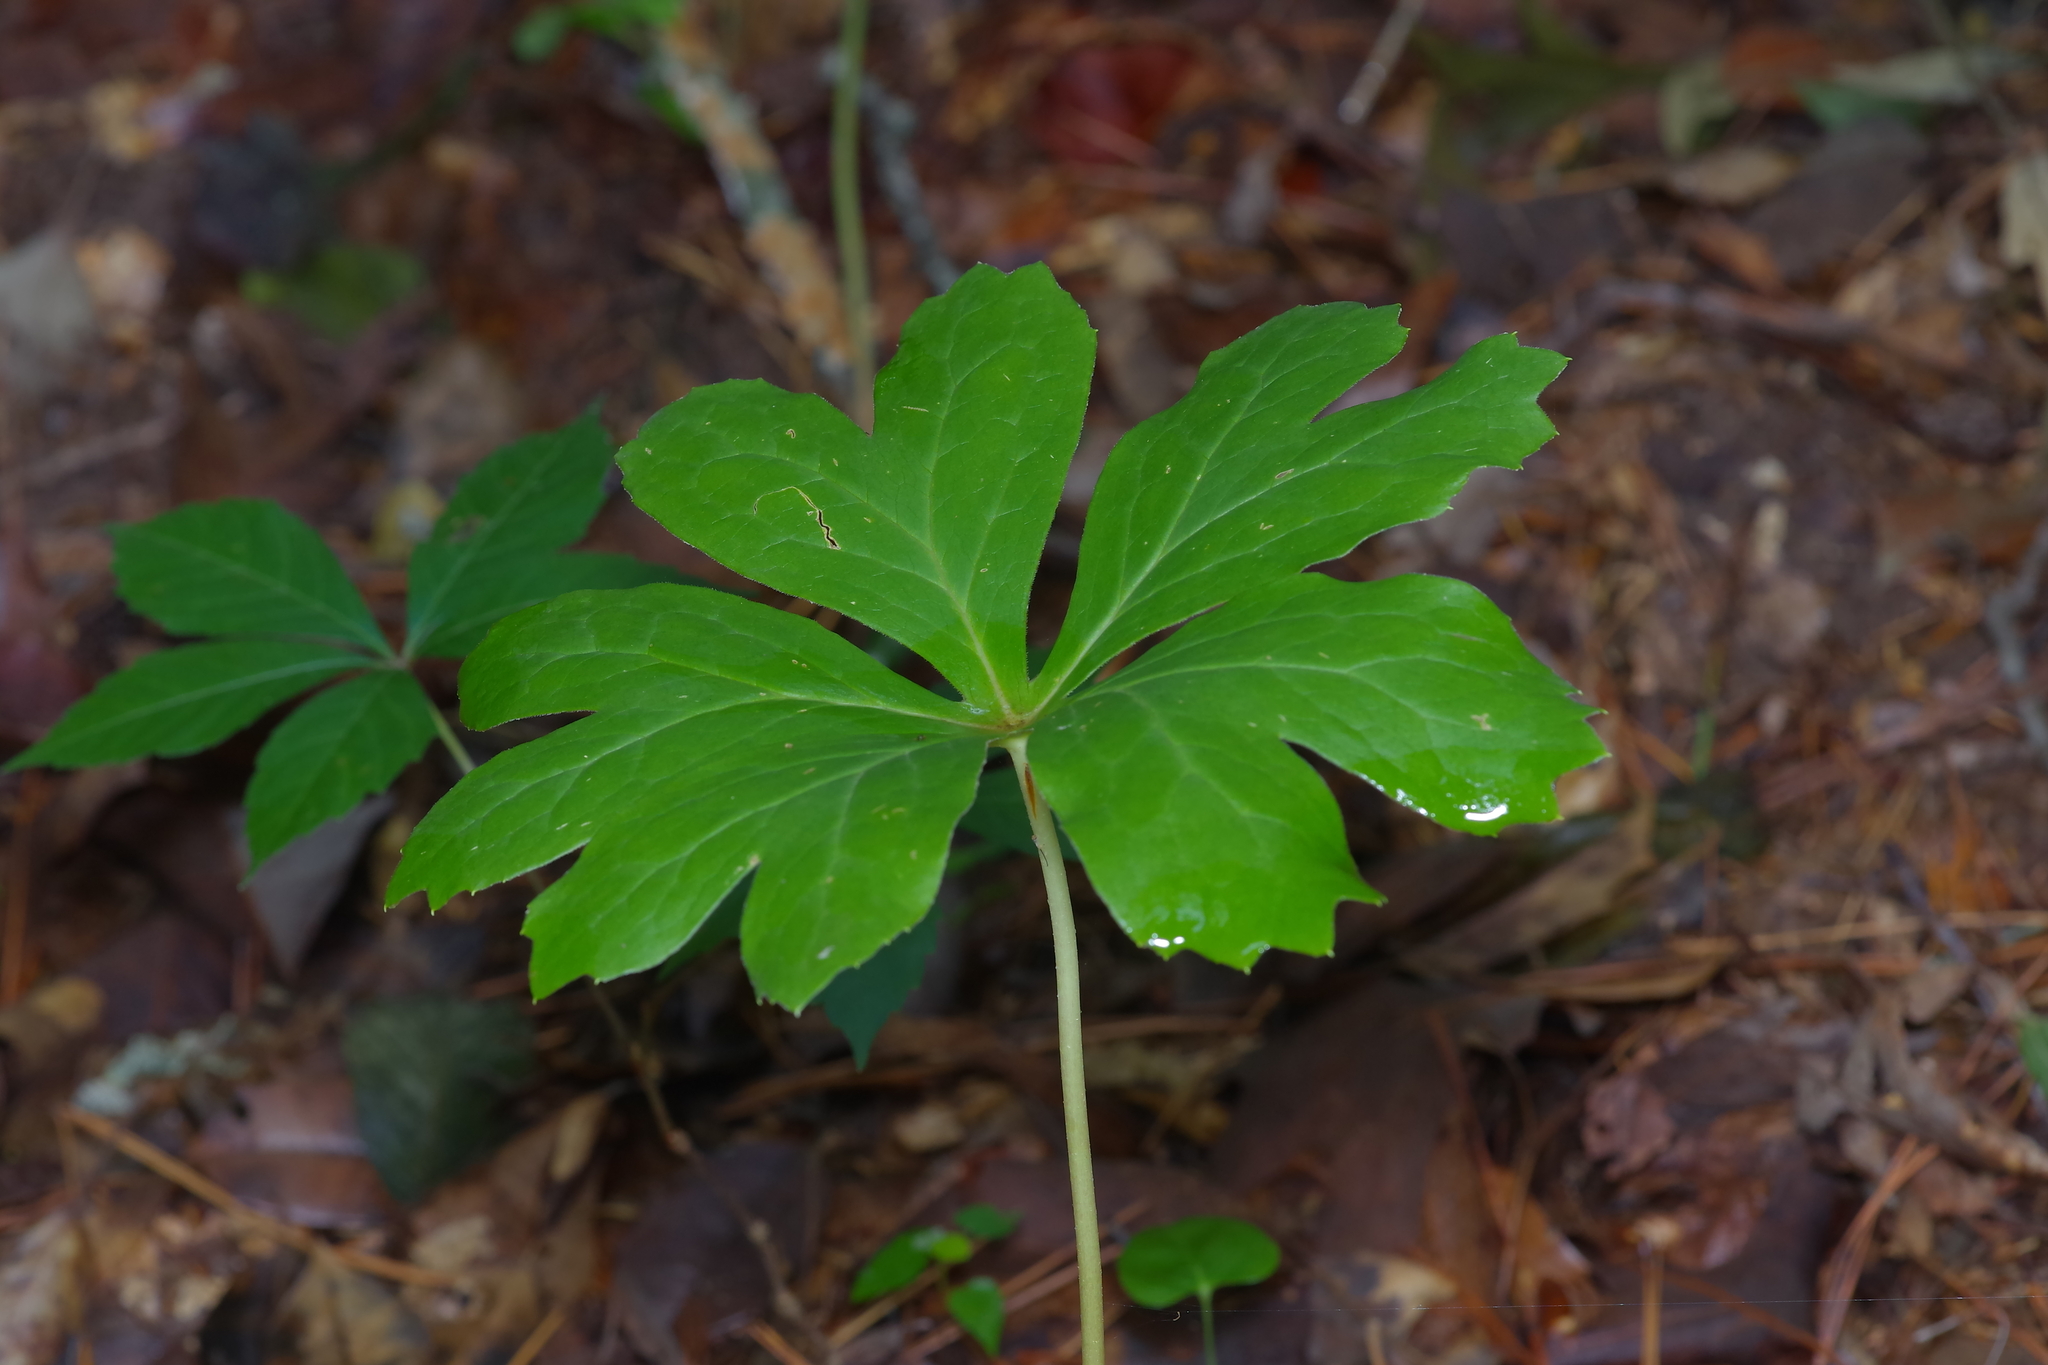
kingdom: Plantae
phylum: Tracheophyta
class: Magnoliopsida
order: Ranunculales
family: Berberidaceae
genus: Podophyllum
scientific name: Podophyllum peltatum
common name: Wild mandrake
